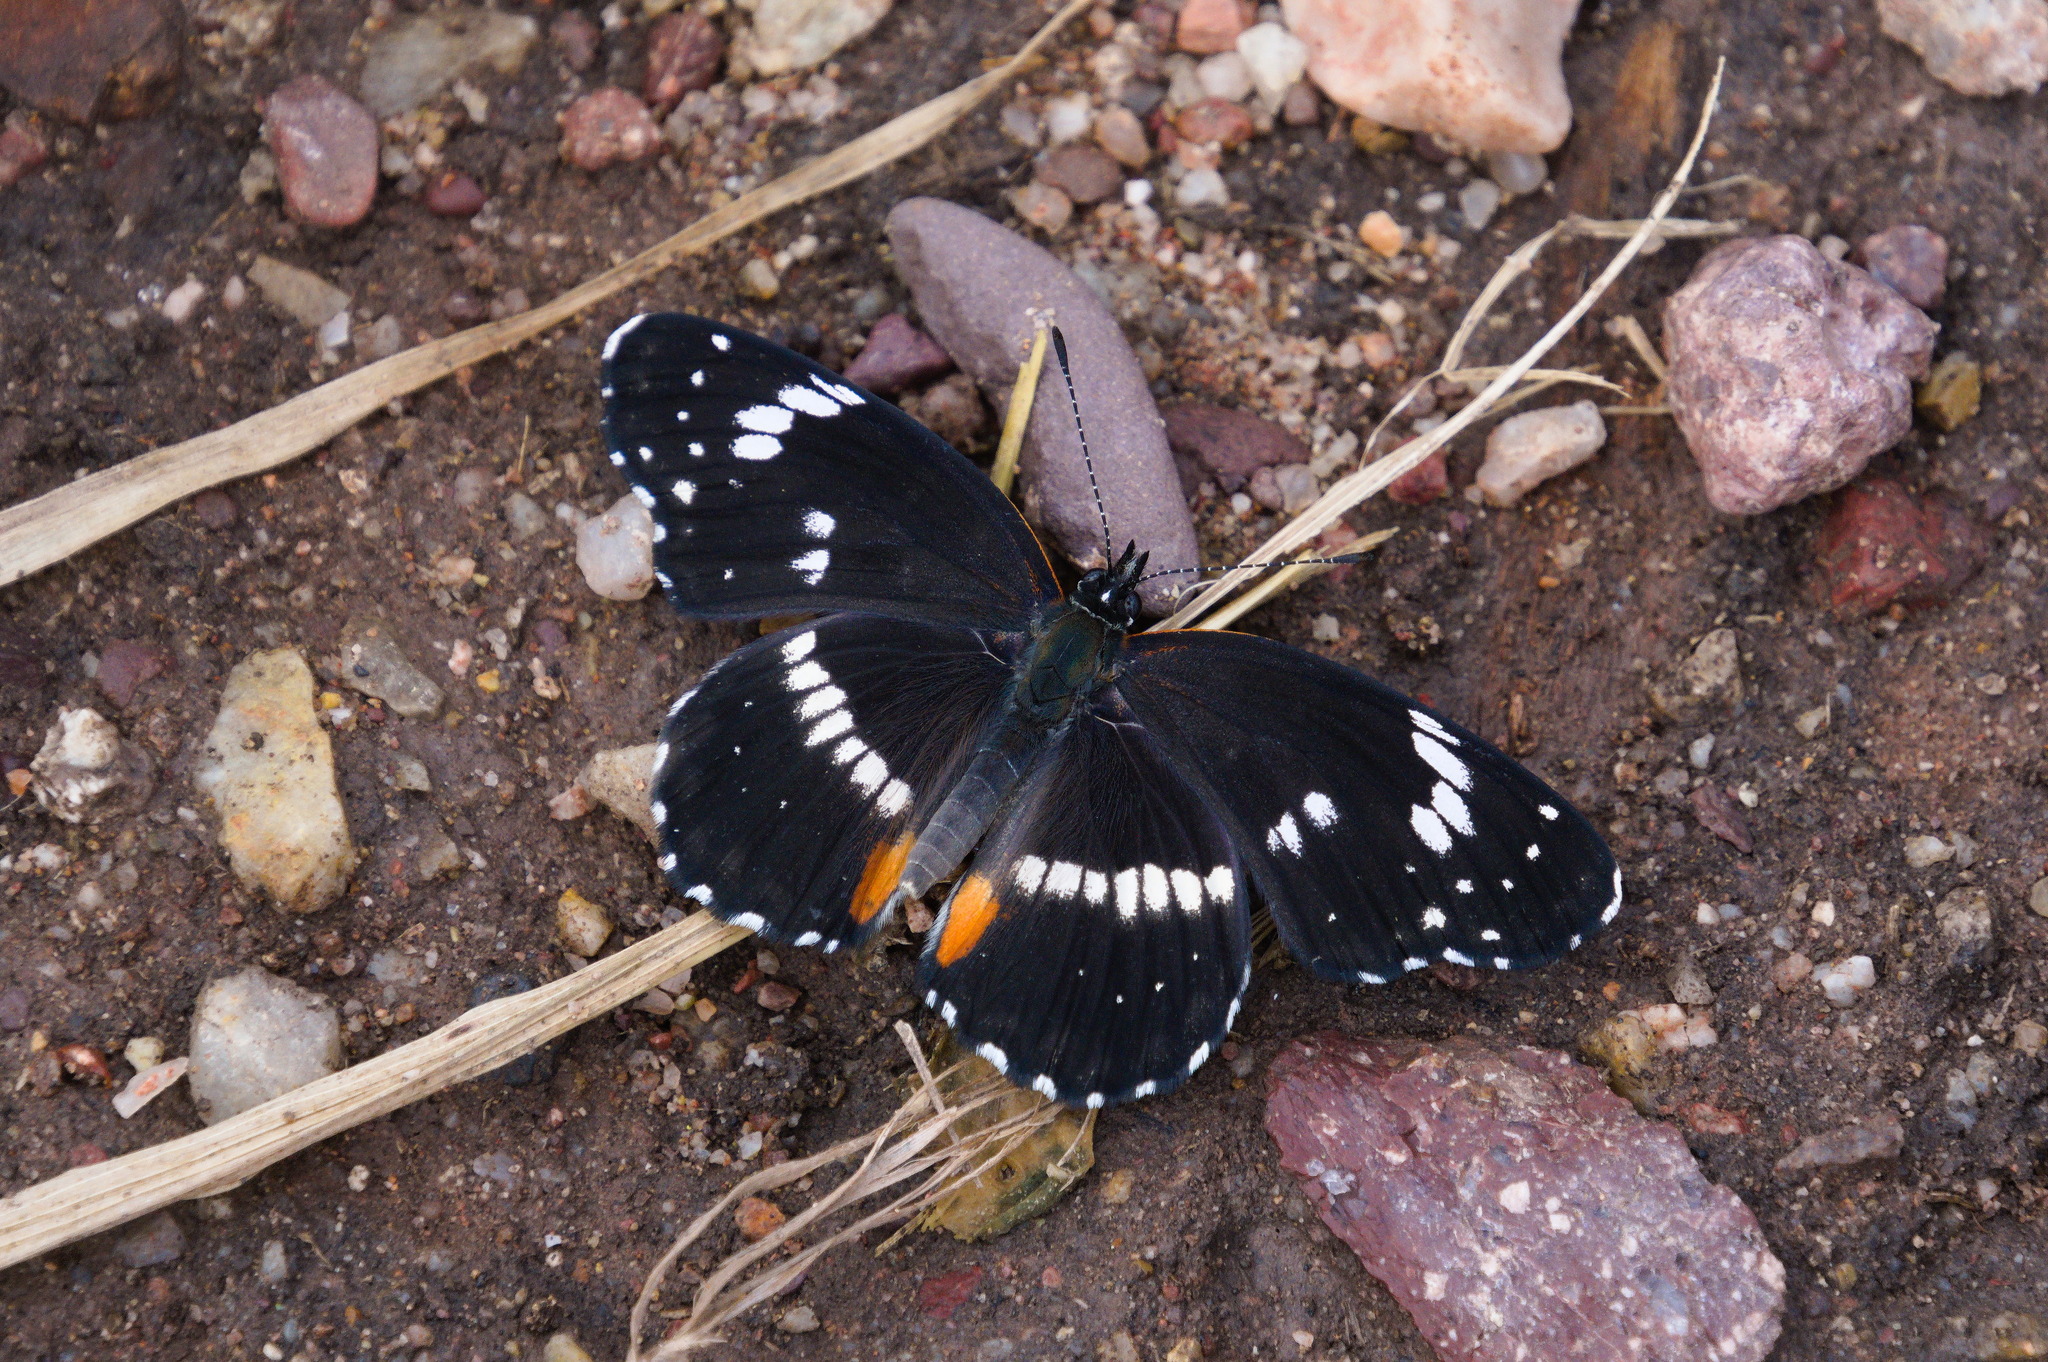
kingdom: Animalia
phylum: Arthropoda
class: Insecta
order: Lepidoptera
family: Nymphalidae
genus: Chlosyne
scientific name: Chlosyne lacinia
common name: Bordered patch
